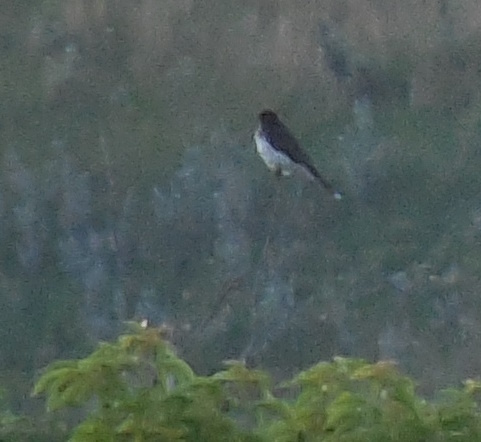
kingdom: Animalia
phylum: Chordata
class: Aves
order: Passeriformes
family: Tyrannidae
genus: Tyrannus
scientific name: Tyrannus tyrannus
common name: Eastern kingbird
